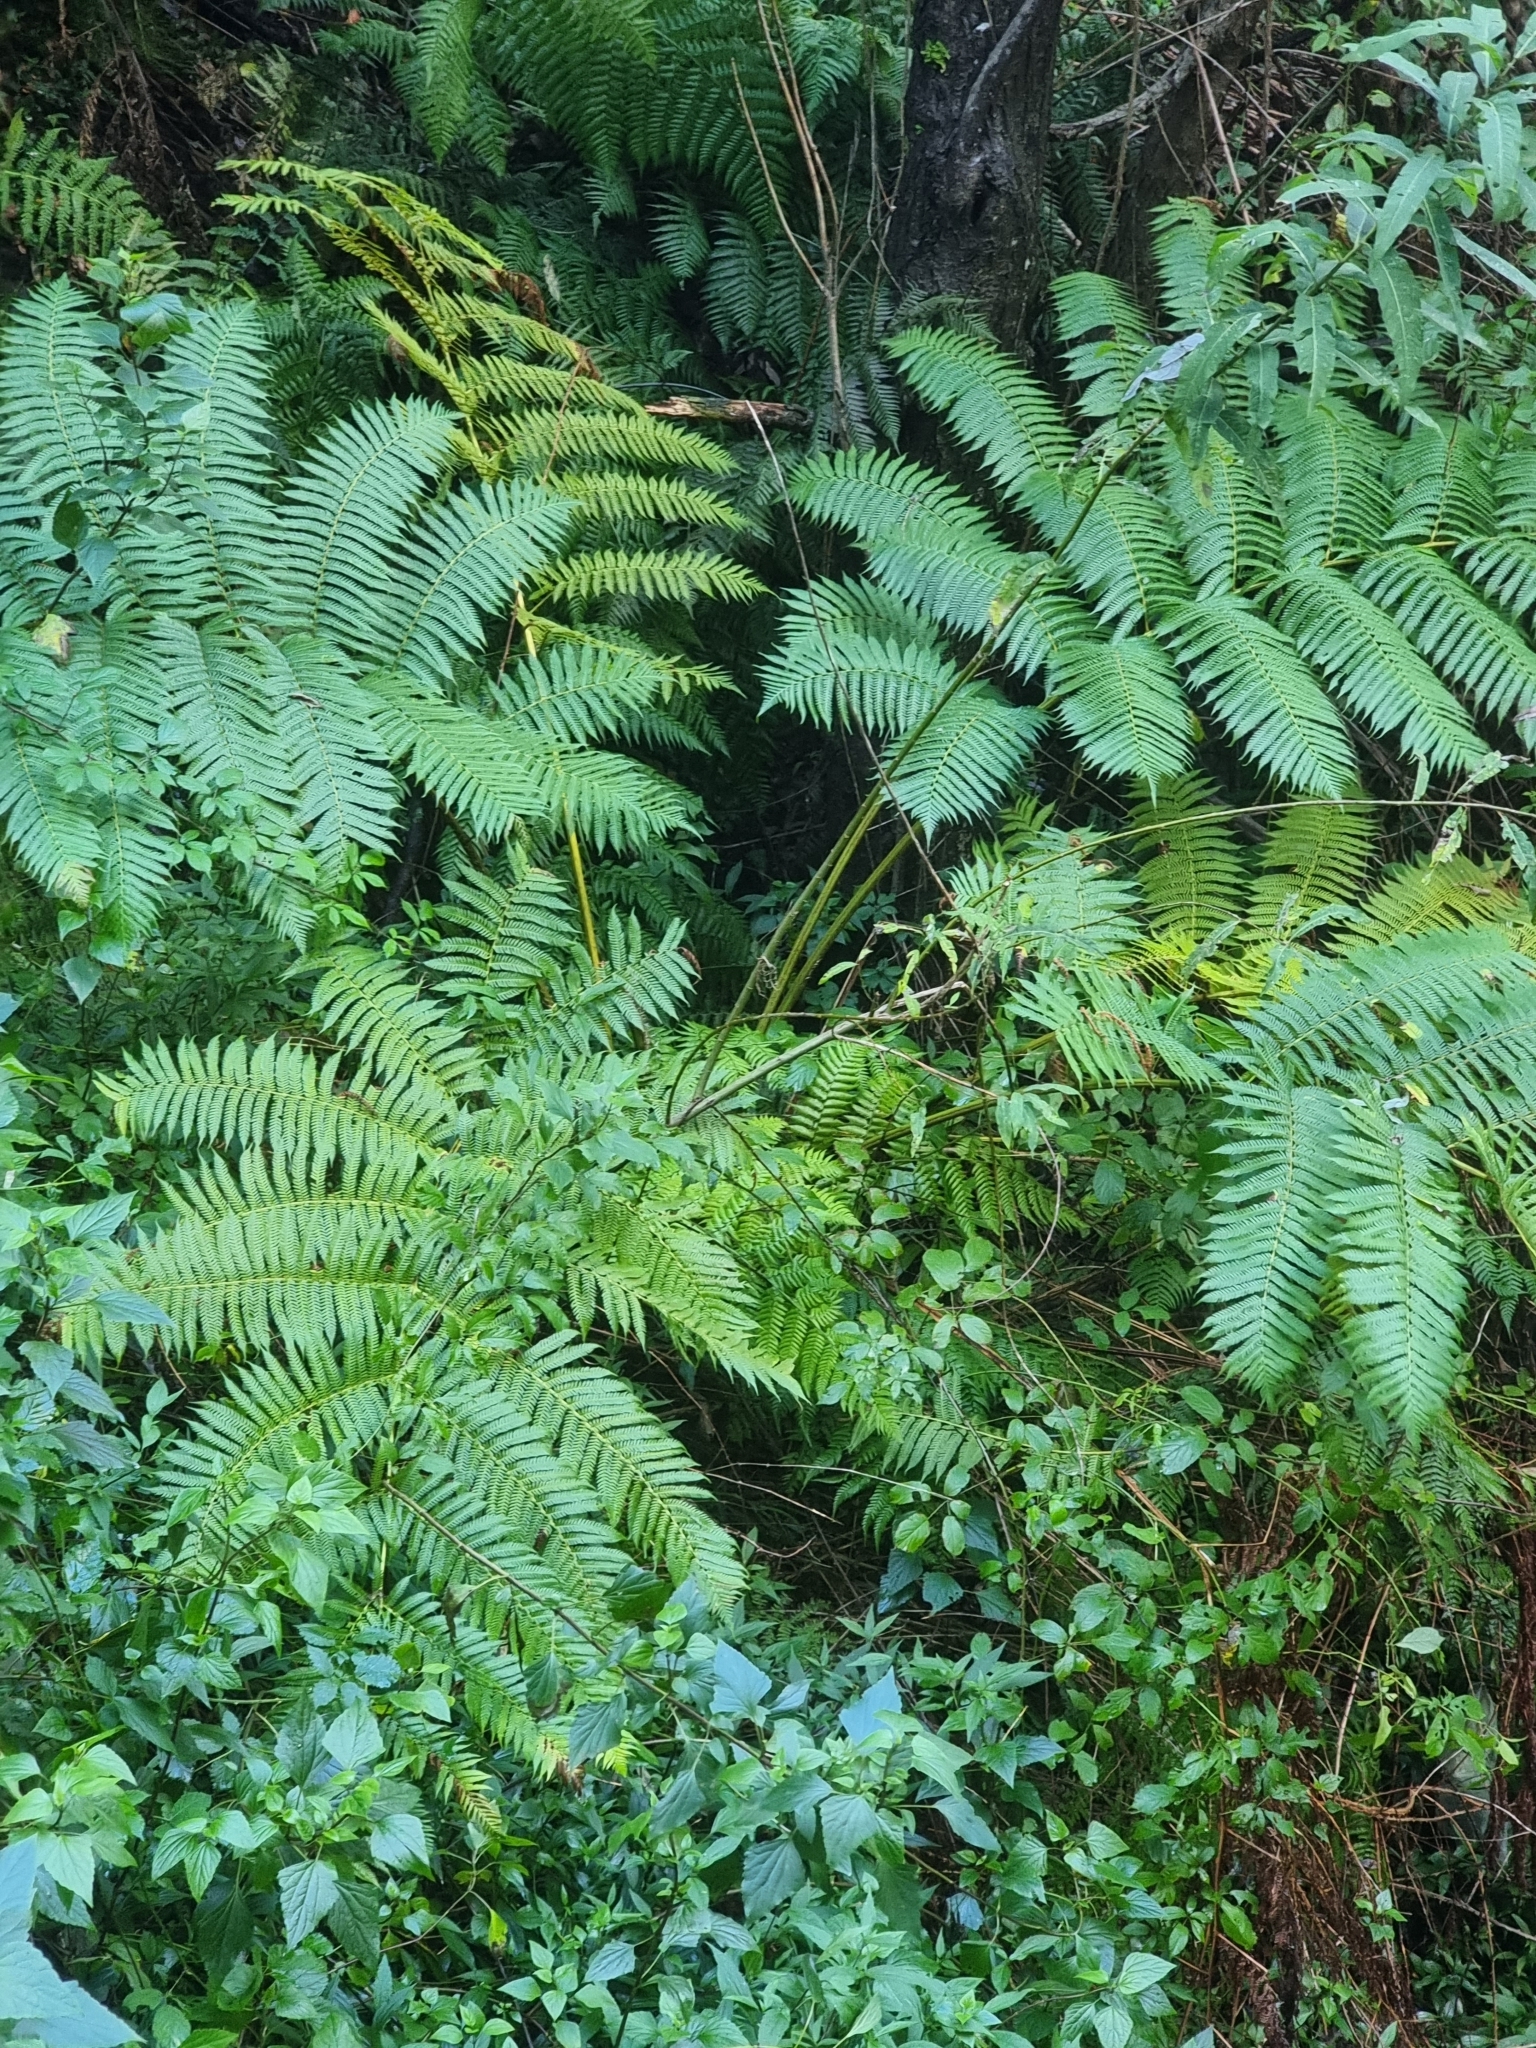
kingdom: Plantae
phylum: Tracheophyta
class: Polypodiopsida
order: Cyatheales
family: Cyatheaceae
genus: Sphaeropteris
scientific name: Sphaeropteris cooperi
